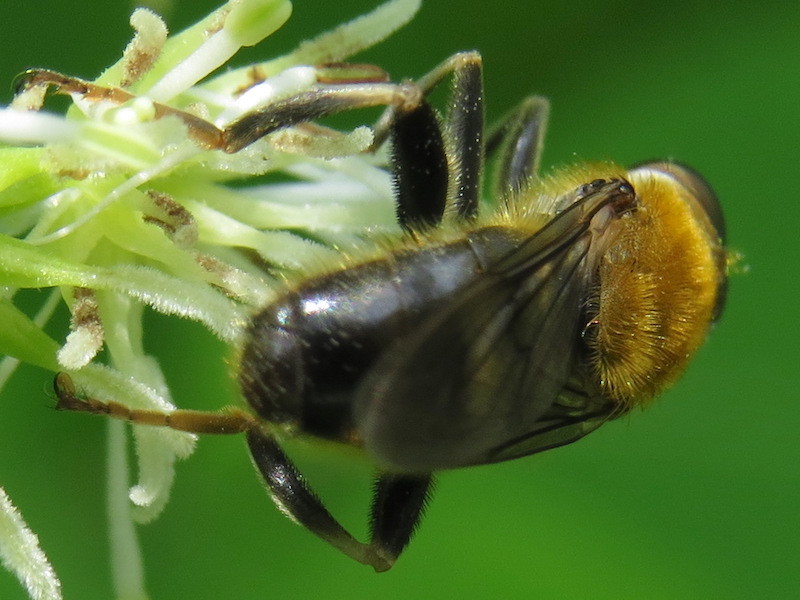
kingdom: Animalia
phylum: Arthropoda
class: Insecta
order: Diptera
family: Syrphidae
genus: Pterallastes
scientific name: Pterallastes thoracicus
